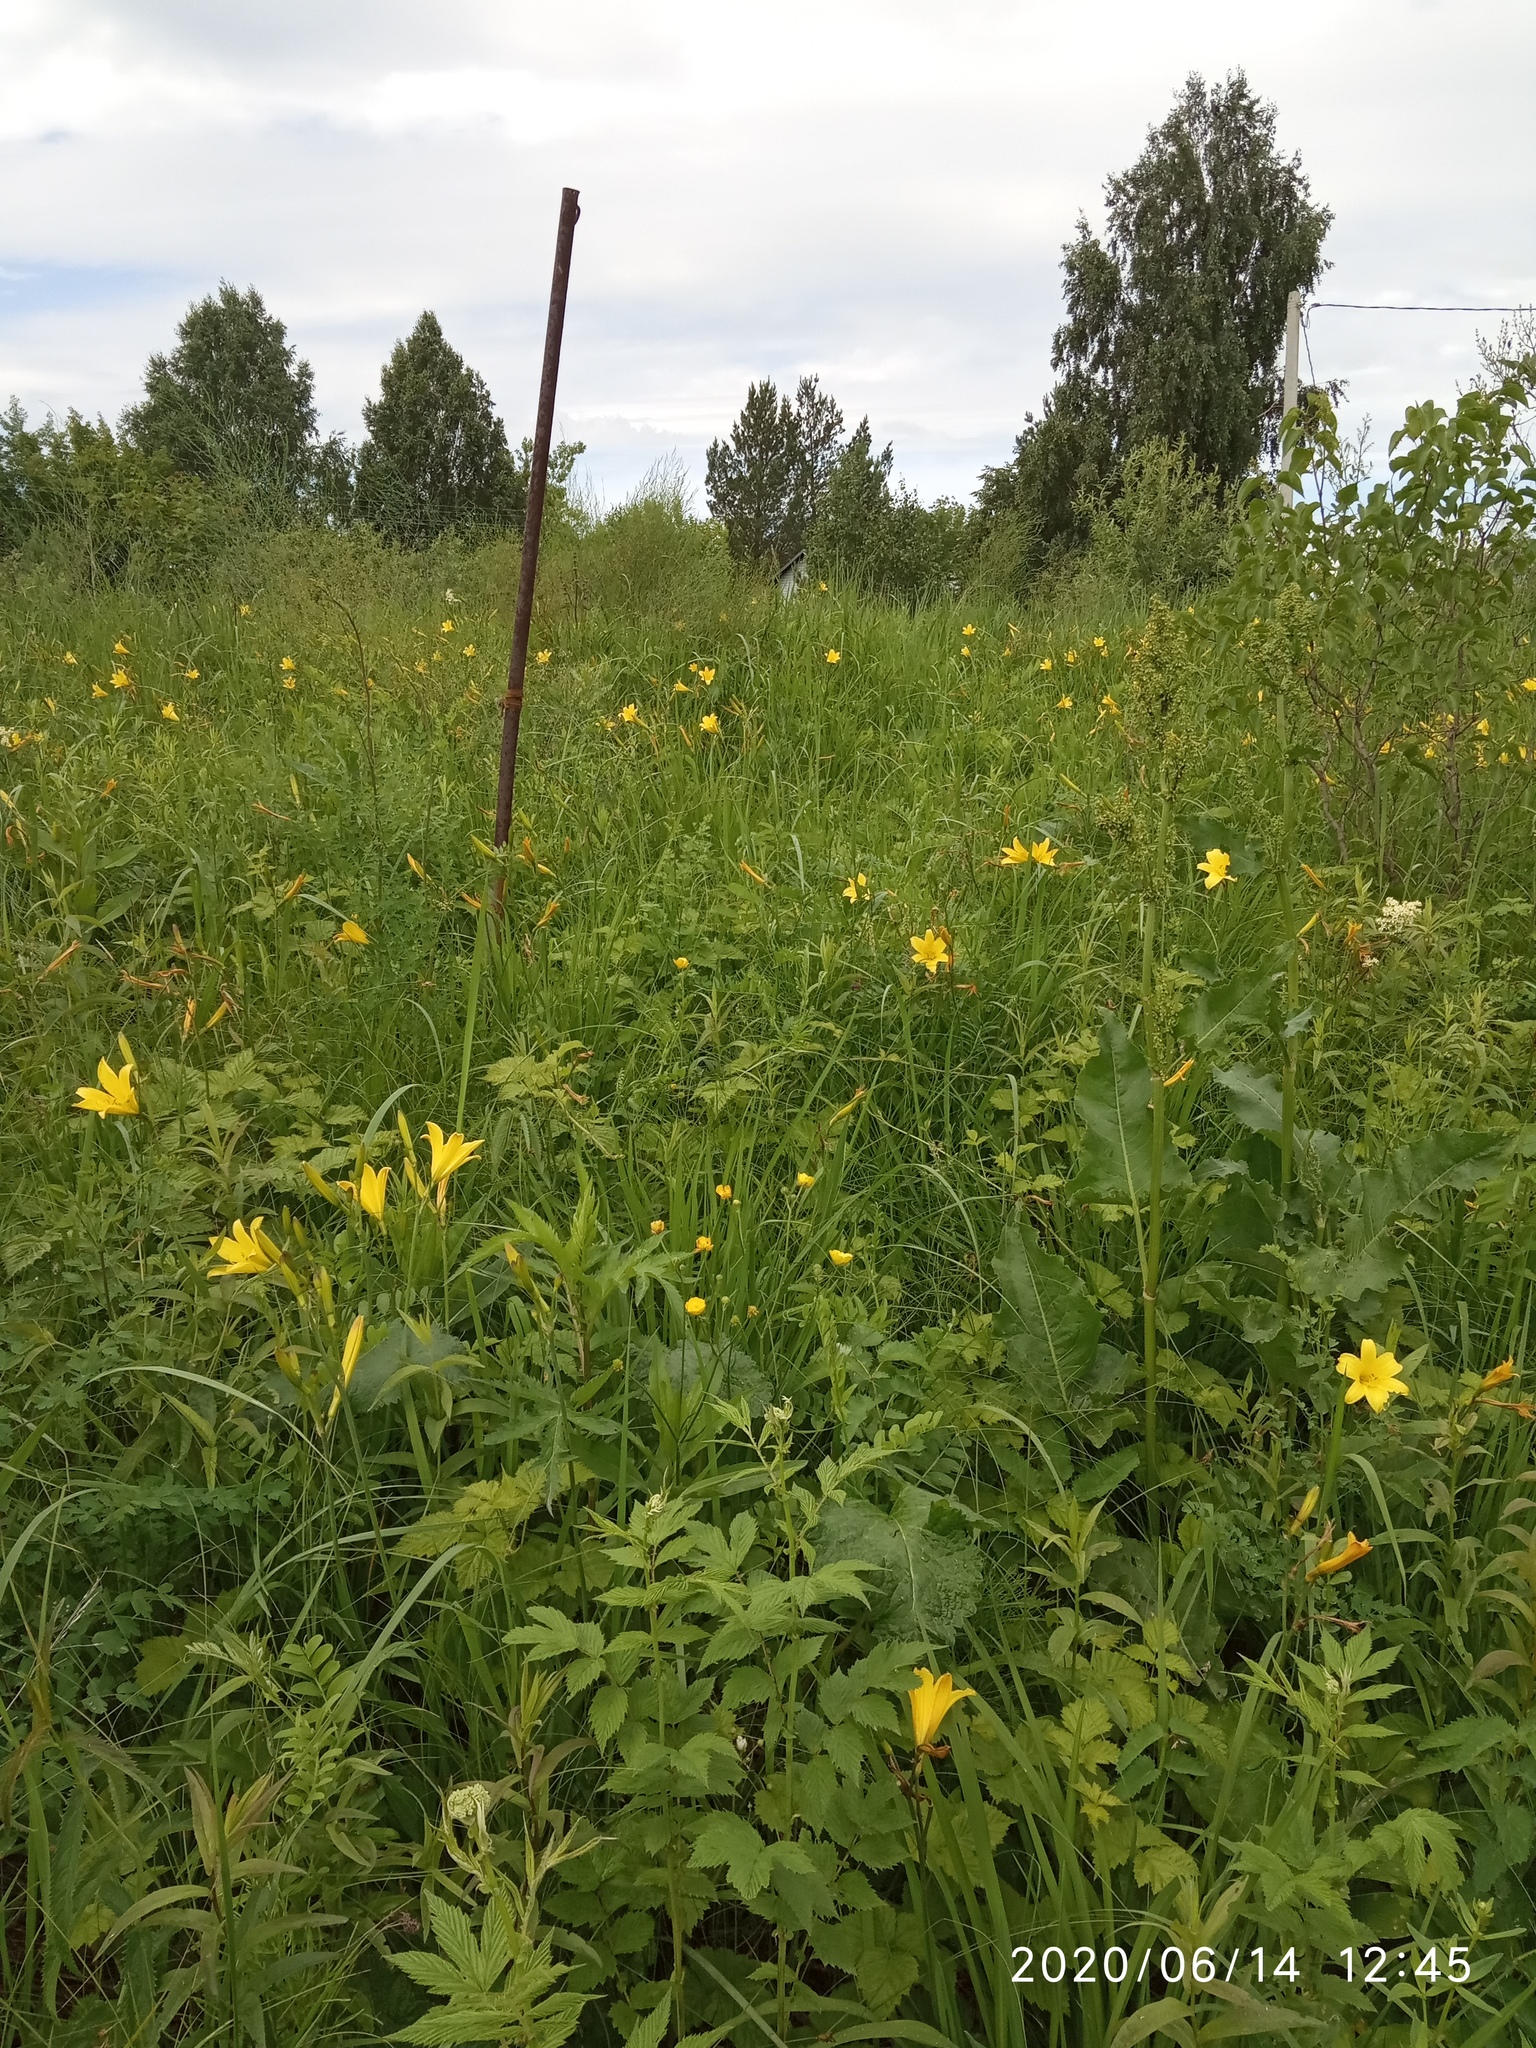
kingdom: Plantae
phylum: Tracheophyta
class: Liliopsida
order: Asparagales
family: Asphodelaceae
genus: Hemerocallis
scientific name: Hemerocallis minor
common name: Small daylily
